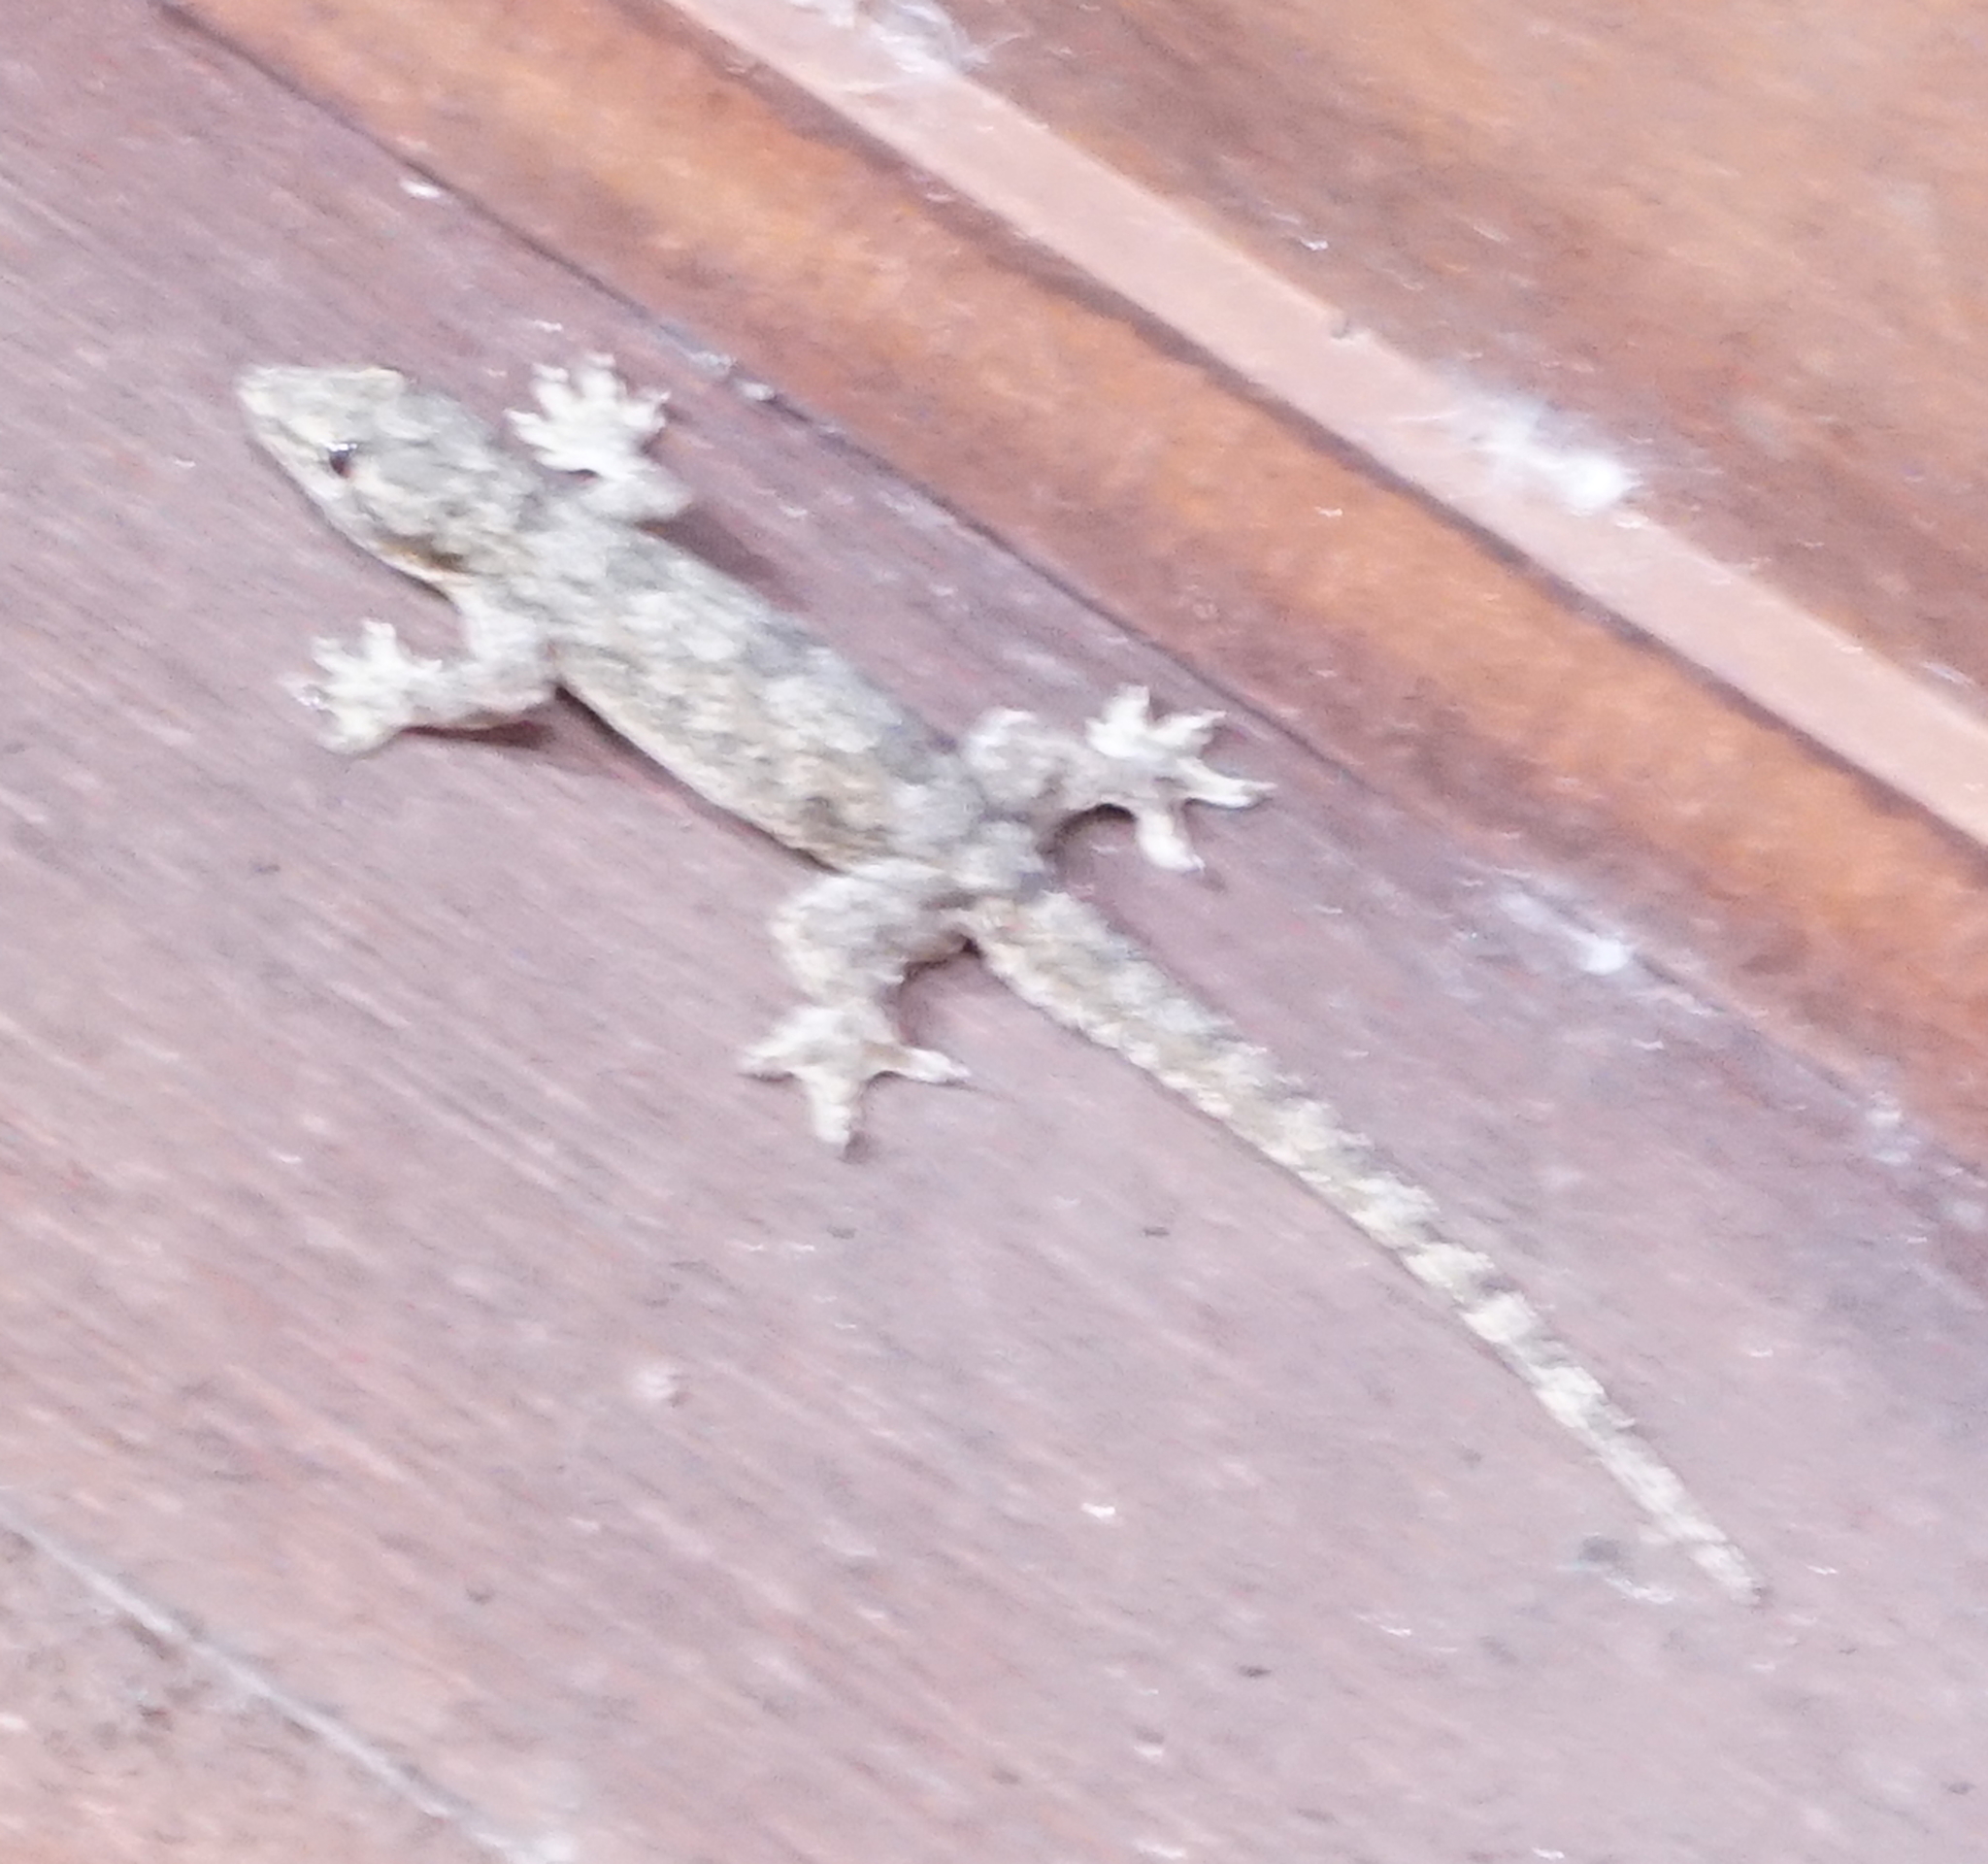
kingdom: Animalia
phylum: Chordata
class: Squamata
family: Gekkonidae
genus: Hemidactylus
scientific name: Hemidactylus platyurus
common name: Flat-tailed house gecko
